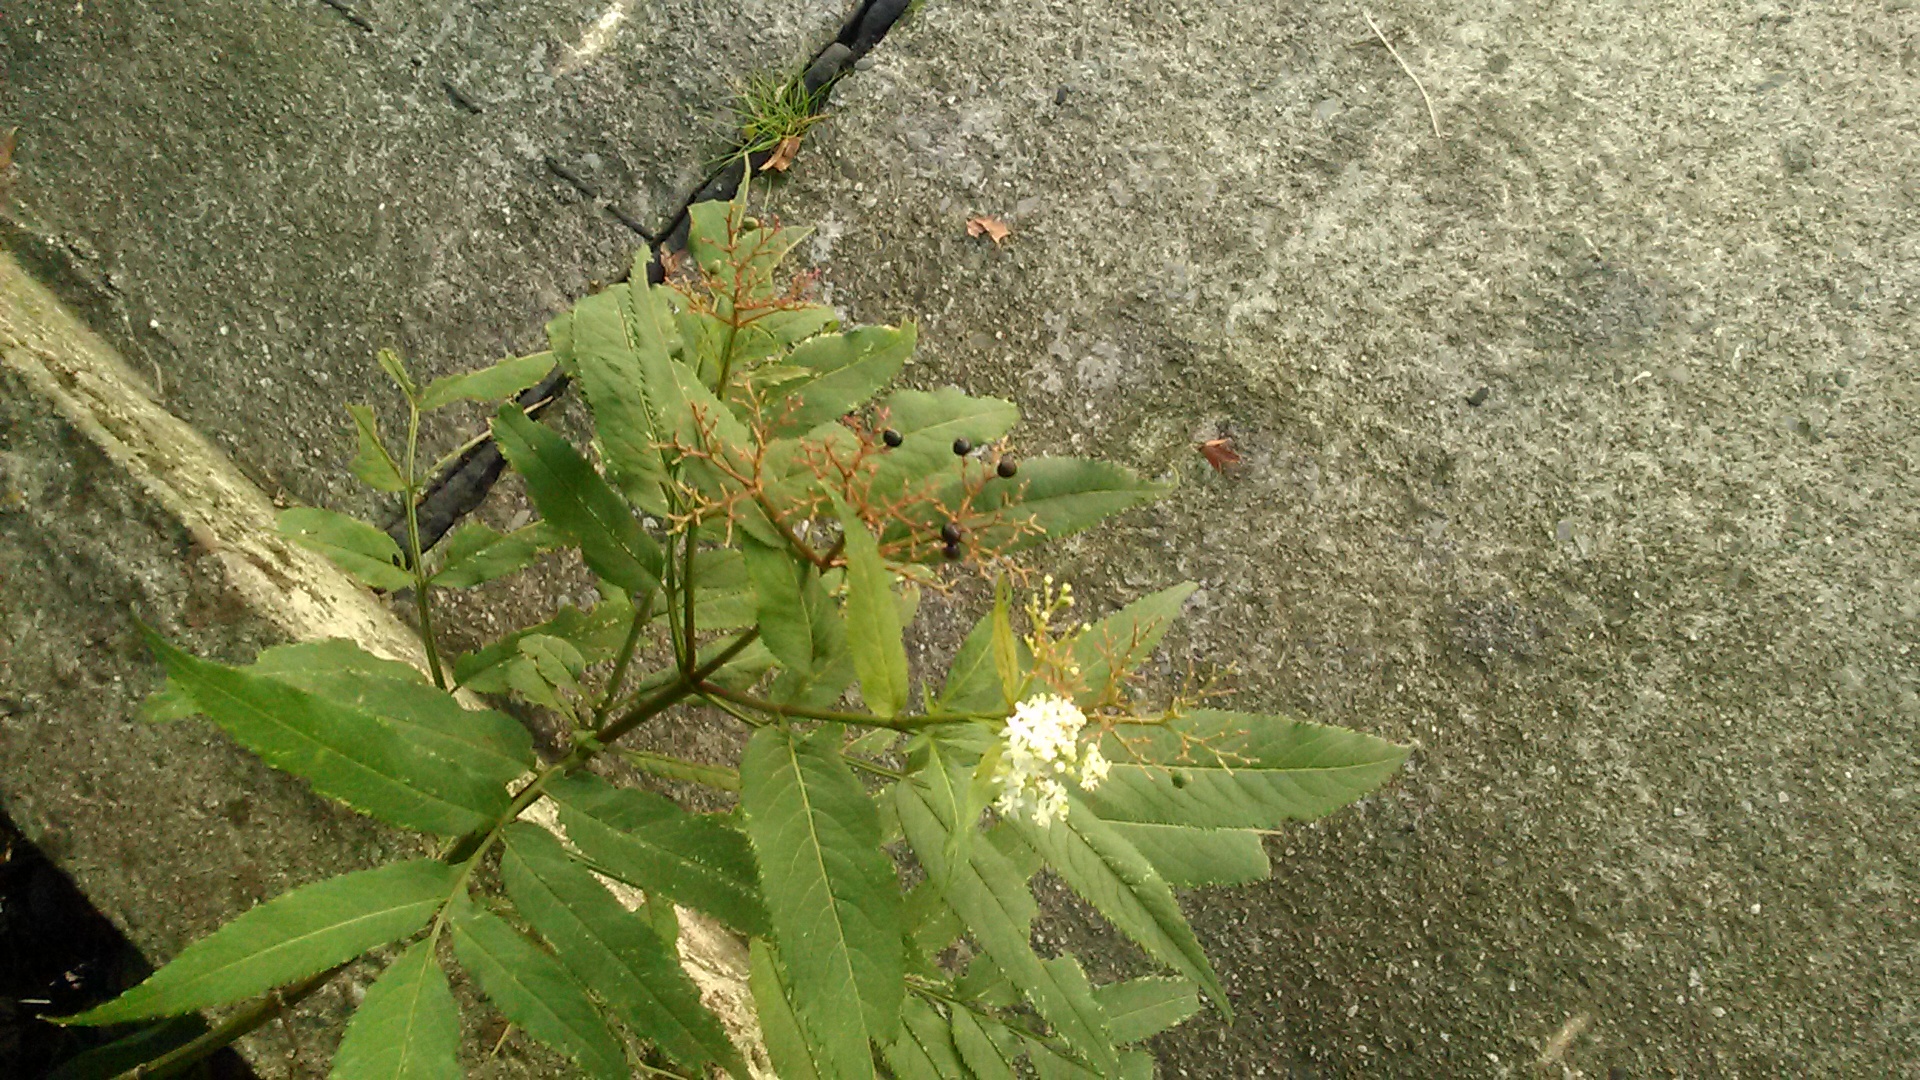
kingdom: Plantae
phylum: Tracheophyta
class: Magnoliopsida
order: Dipsacales
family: Viburnaceae
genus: Sambucus
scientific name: Sambucus ebulus
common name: Dwarf elder
